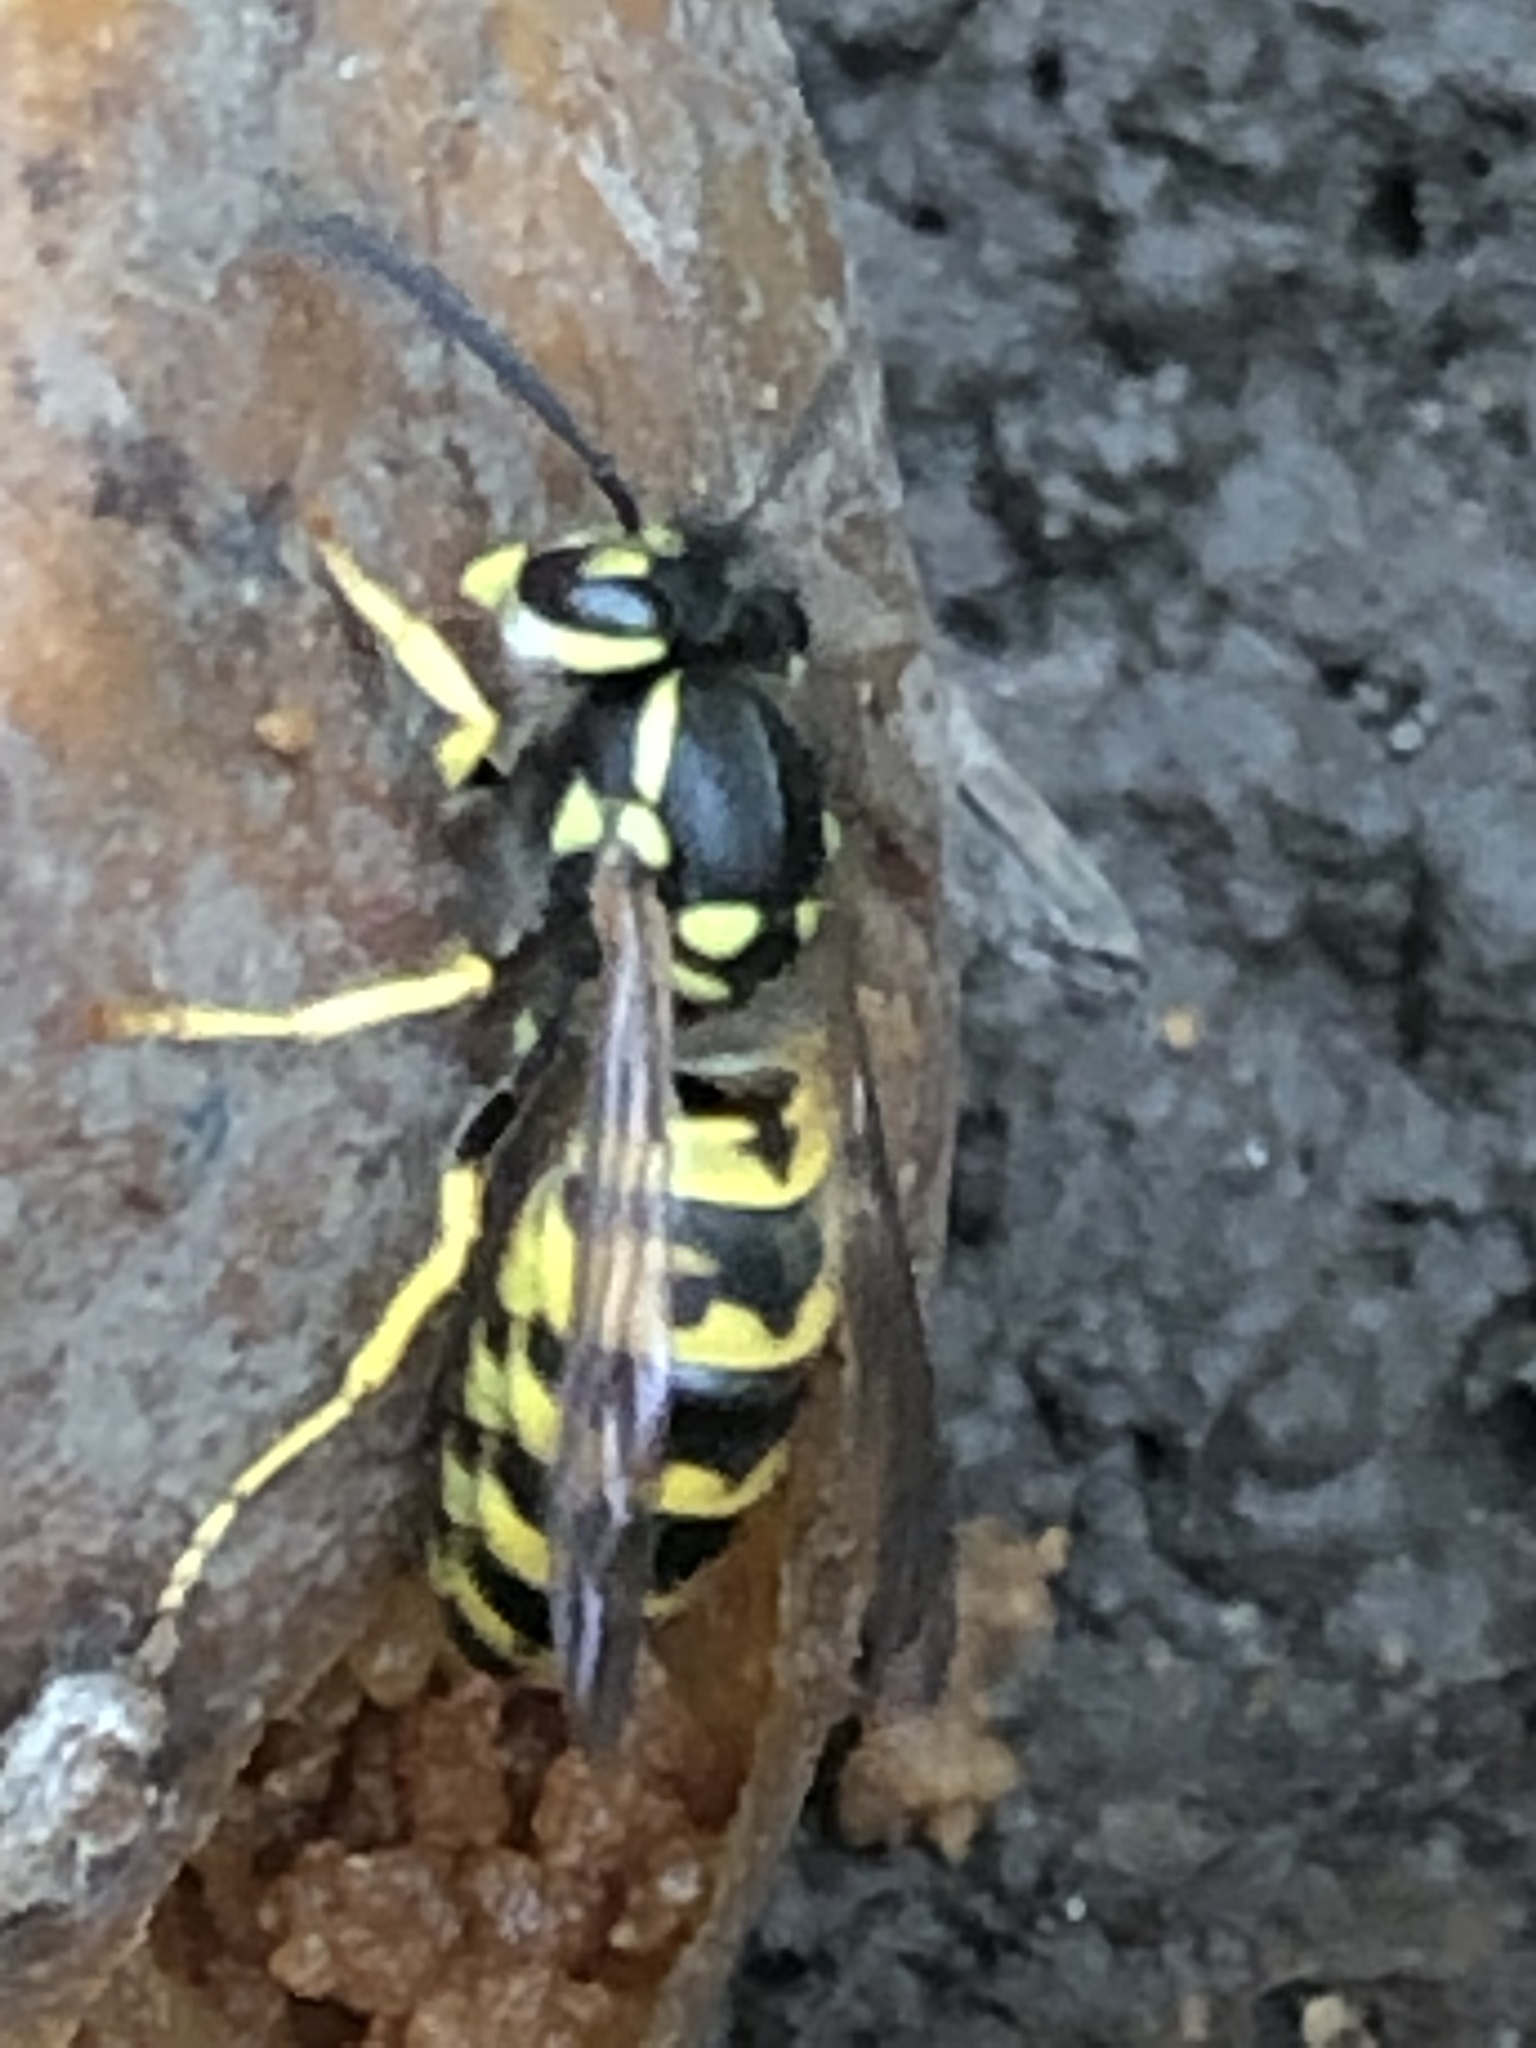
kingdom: Animalia
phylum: Arthropoda
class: Insecta
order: Hymenoptera
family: Vespidae
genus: Vespula
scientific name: Vespula germanica
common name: German wasp
